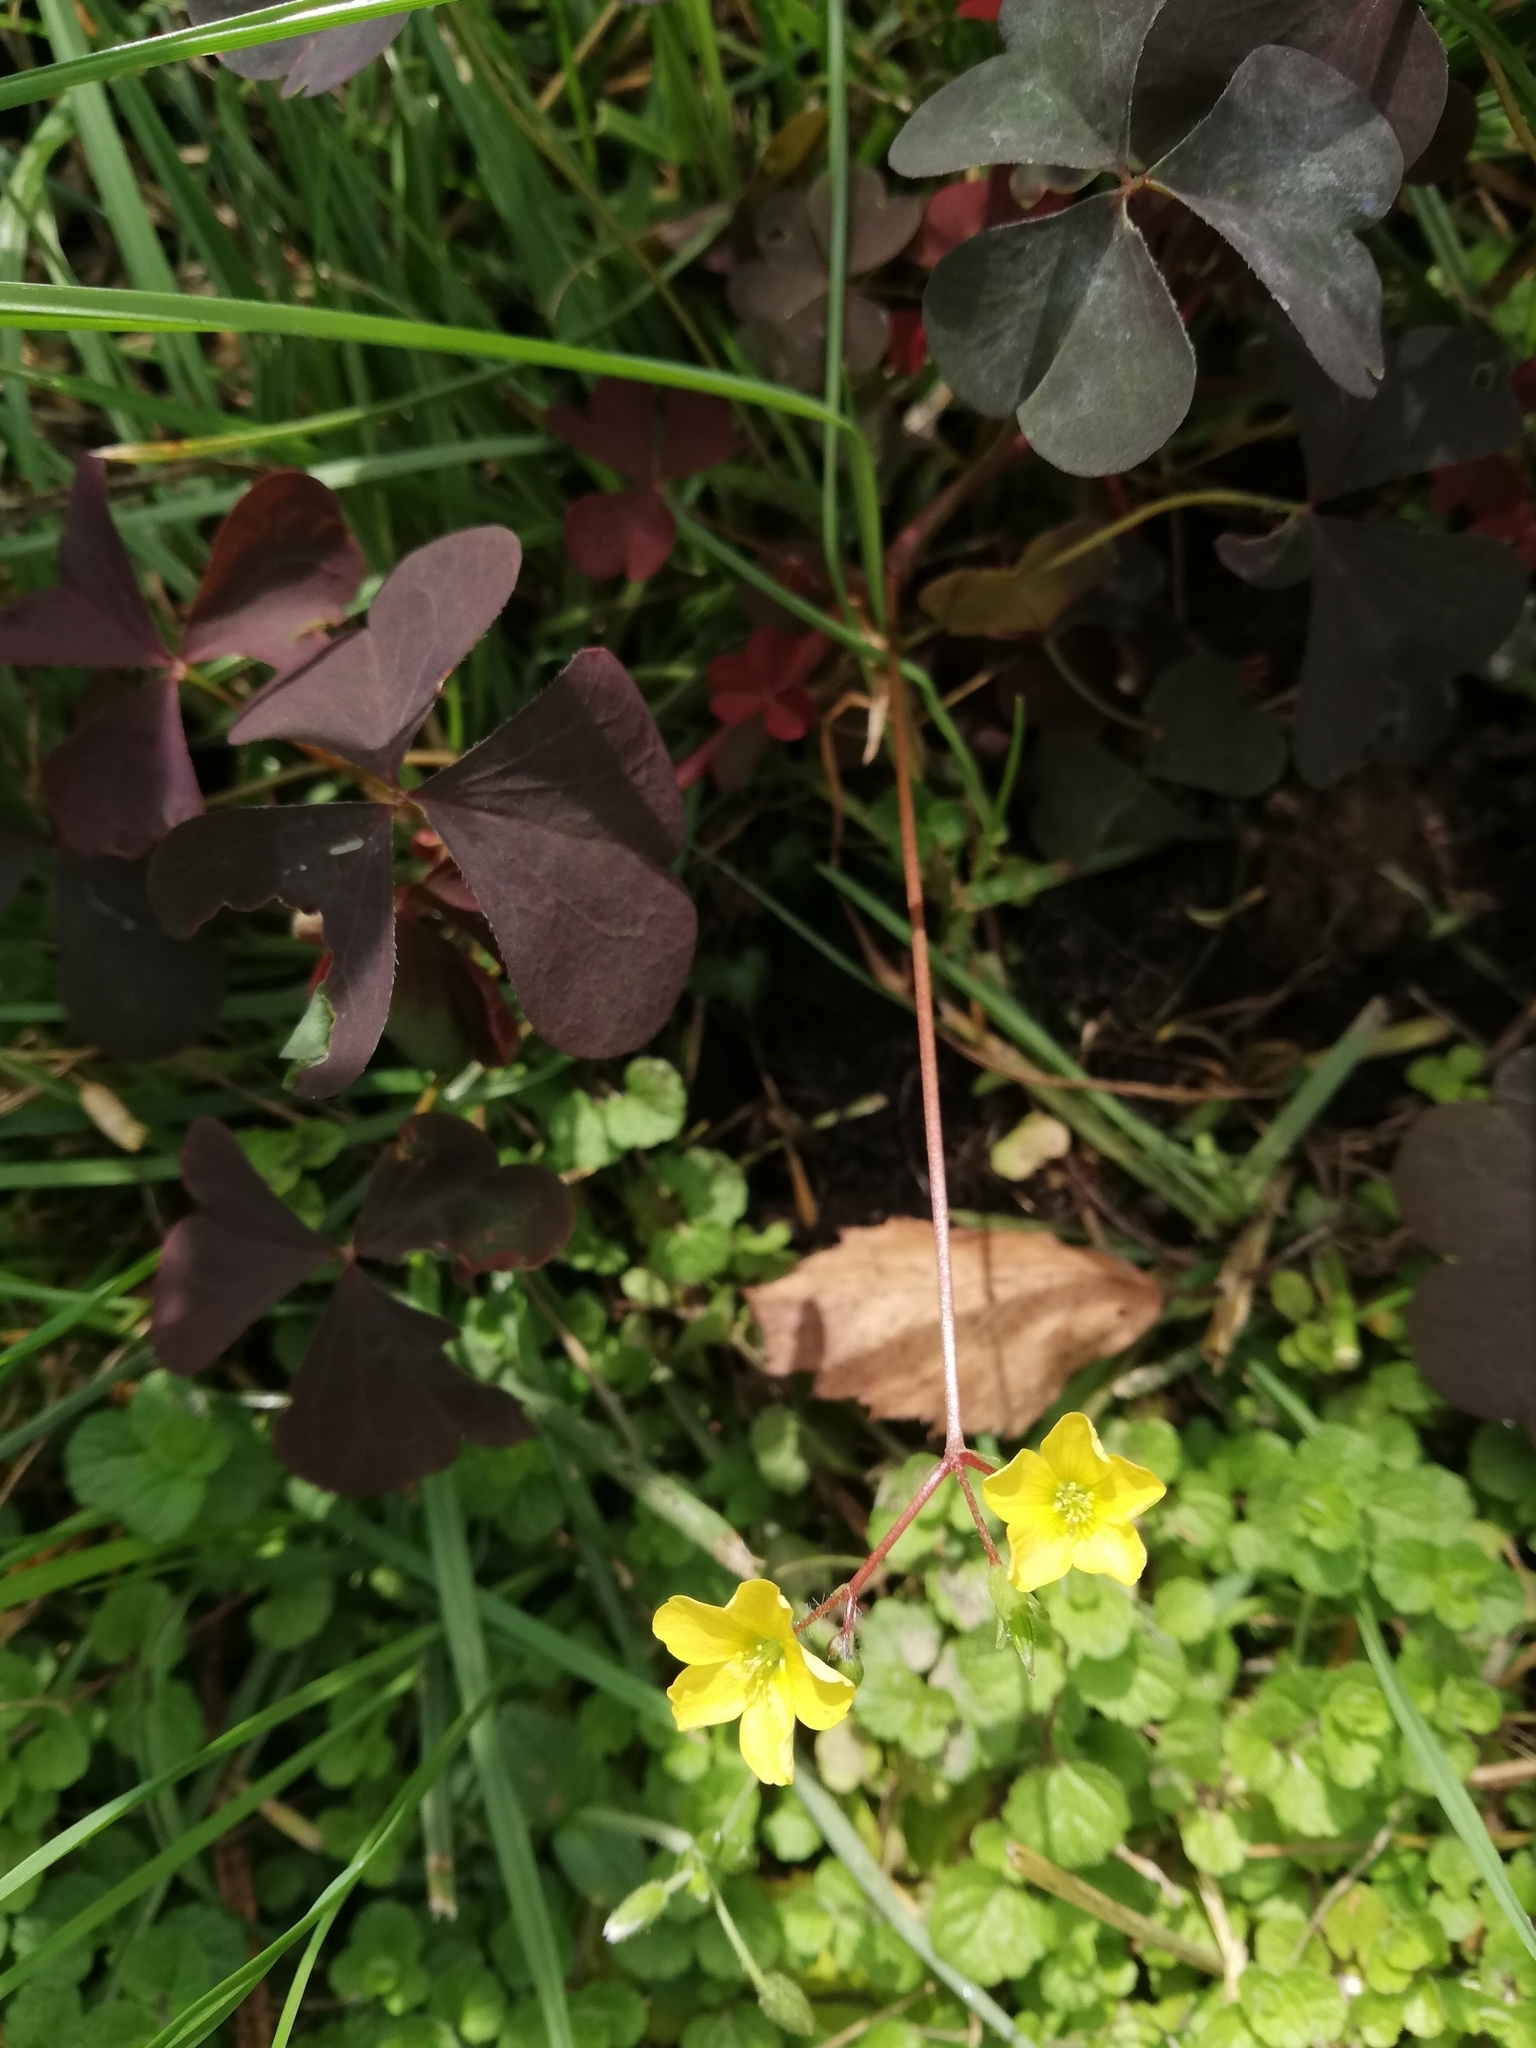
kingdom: Plantae
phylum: Tracheophyta
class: Magnoliopsida
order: Oxalidales
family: Oxalidaceae
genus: Oxalis
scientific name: Oxalis stricta
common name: Upright yellow-sorrel
